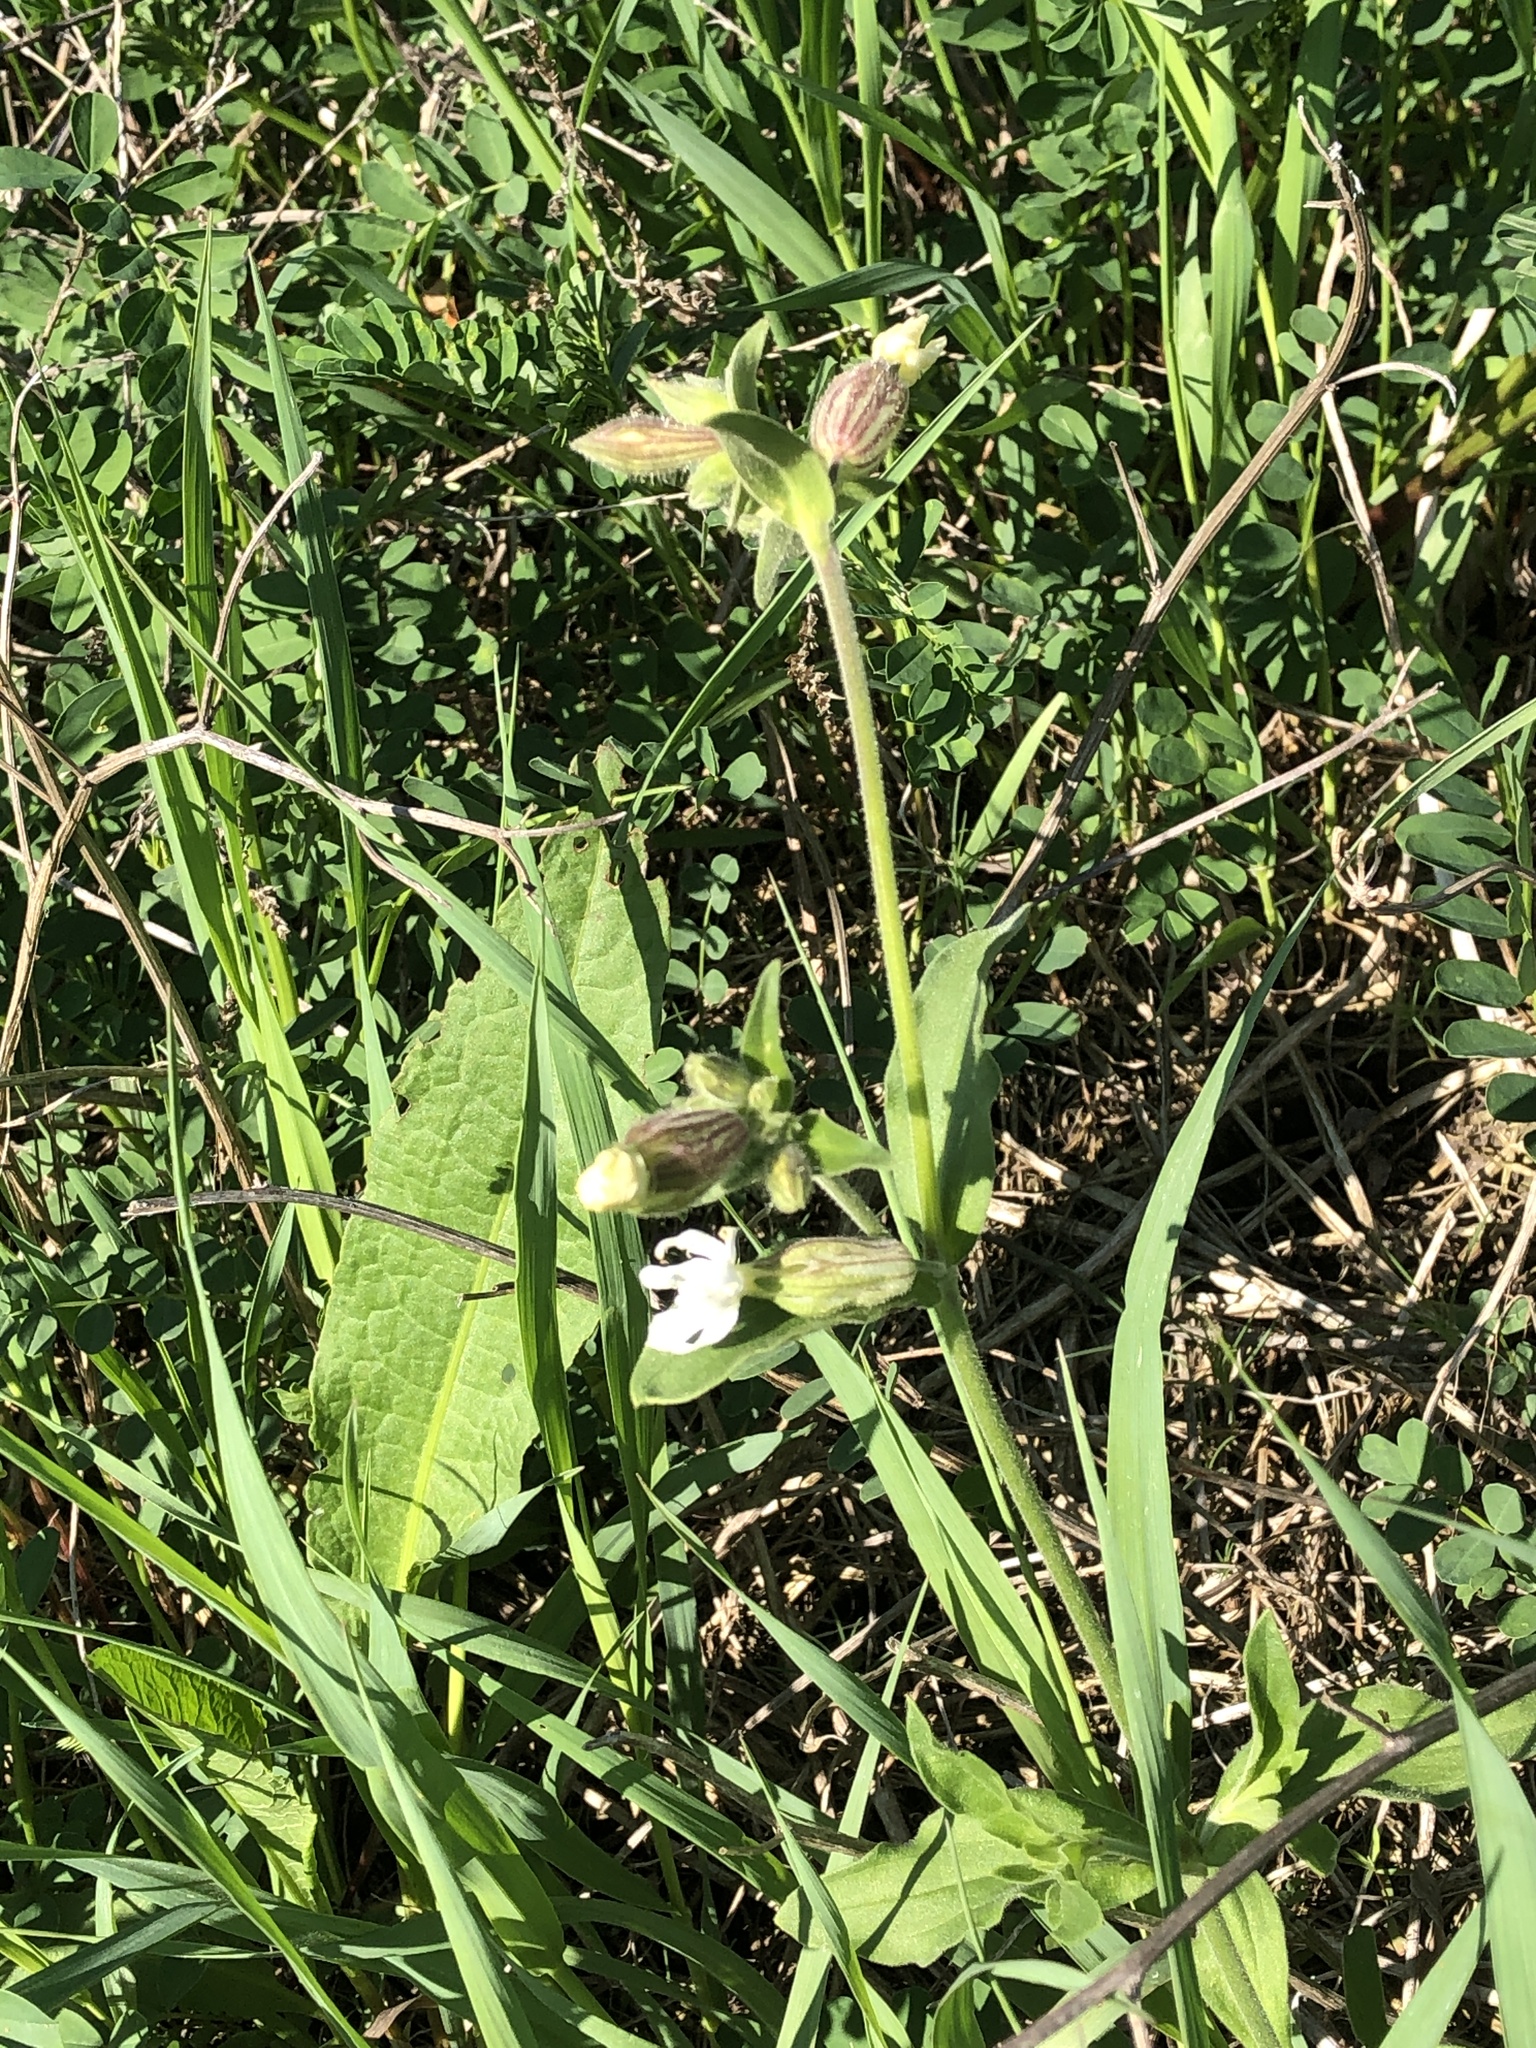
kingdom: Plantae
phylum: Tracheophyta
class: Magnoliopsida
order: Caryophyllales
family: Caryophyllaceae
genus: Silene
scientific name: Silene latifolia
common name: White campion
